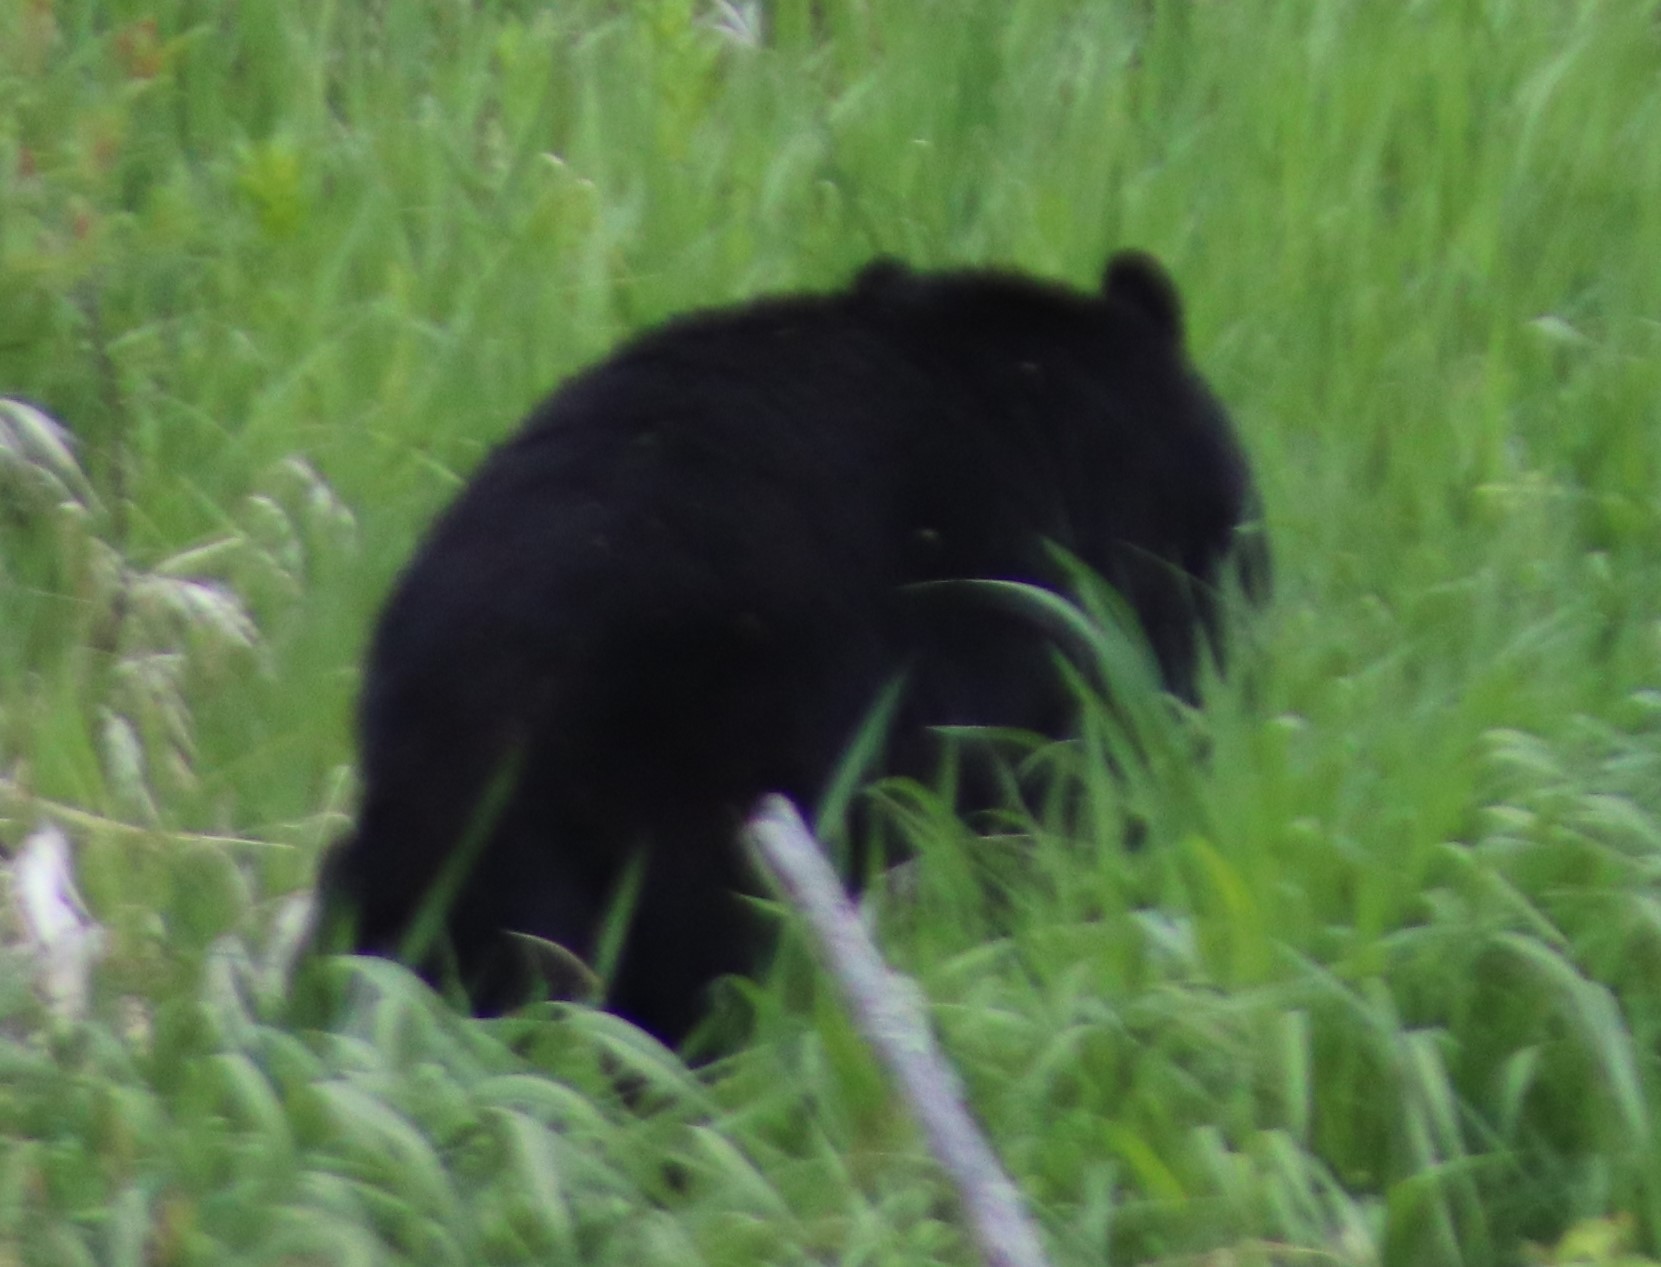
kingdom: Animalia
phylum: Chordata
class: Mammalia
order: Carnivora
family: Ursidae
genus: Ursus
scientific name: Ursus americanus
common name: American black bear
